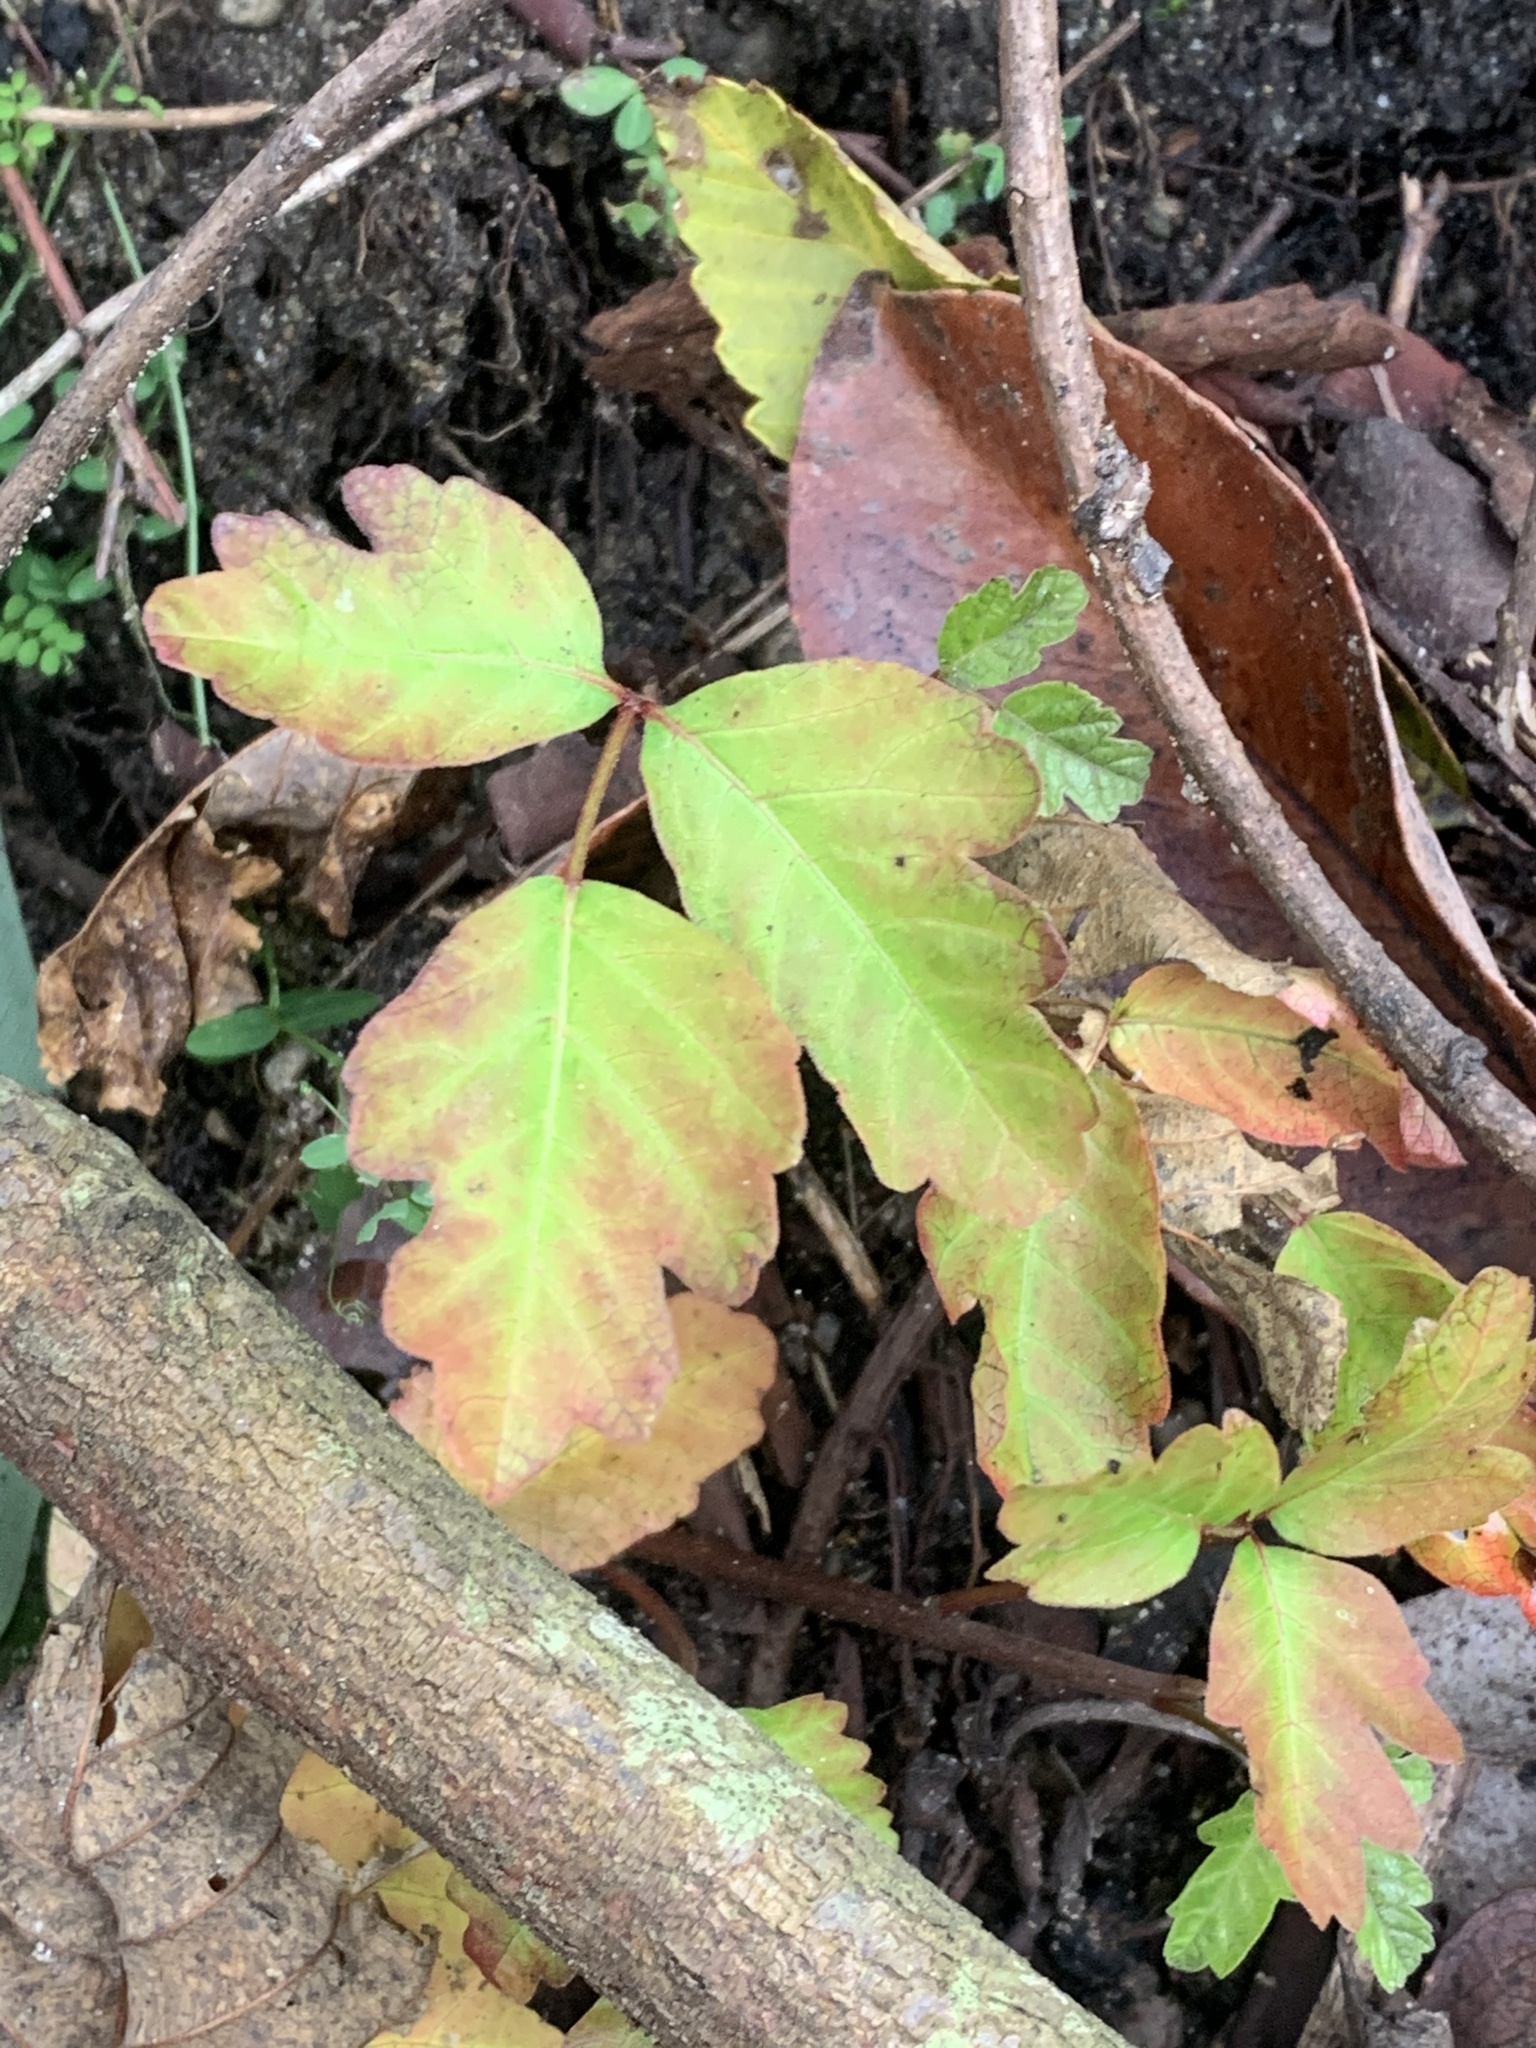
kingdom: Plantae
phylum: Tracheophyta
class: Magnoliopsida
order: Sapindales
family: Anacardiaceae
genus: Toxicodendron
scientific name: Toxicodendron diversilobum
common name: Pacific poison-oak
